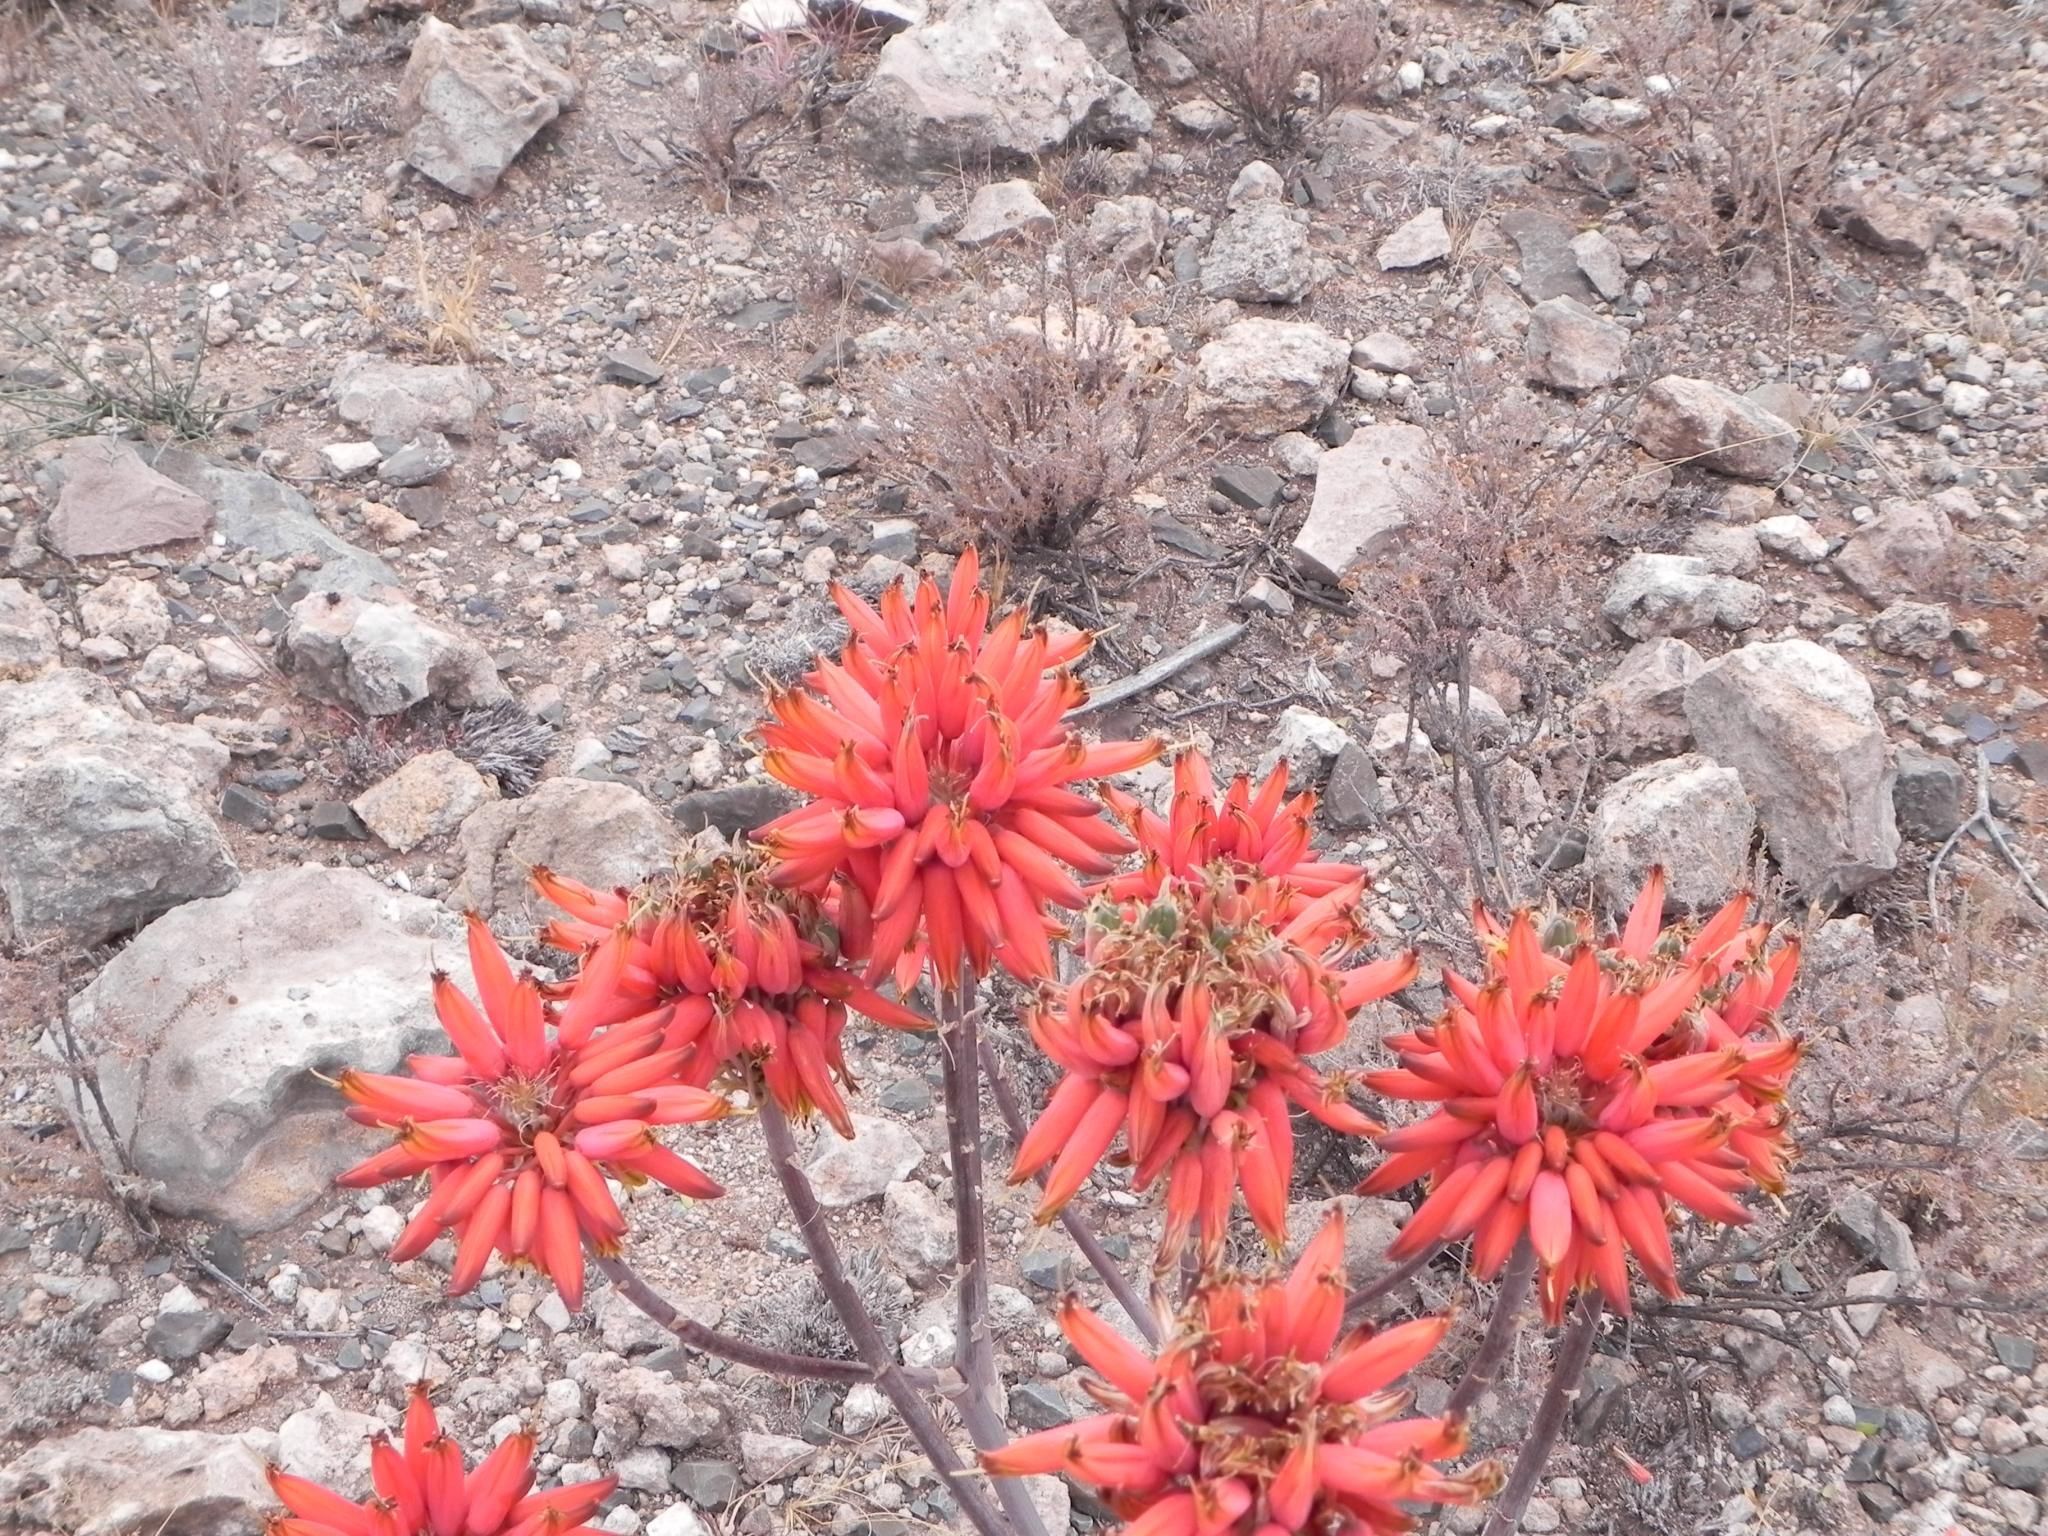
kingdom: Plantae
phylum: Tracheophyta
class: Liliopsida
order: Asparagales
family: Asphodelaceae
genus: Aloe
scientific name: Aloe hereroensis
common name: Herero aloe
